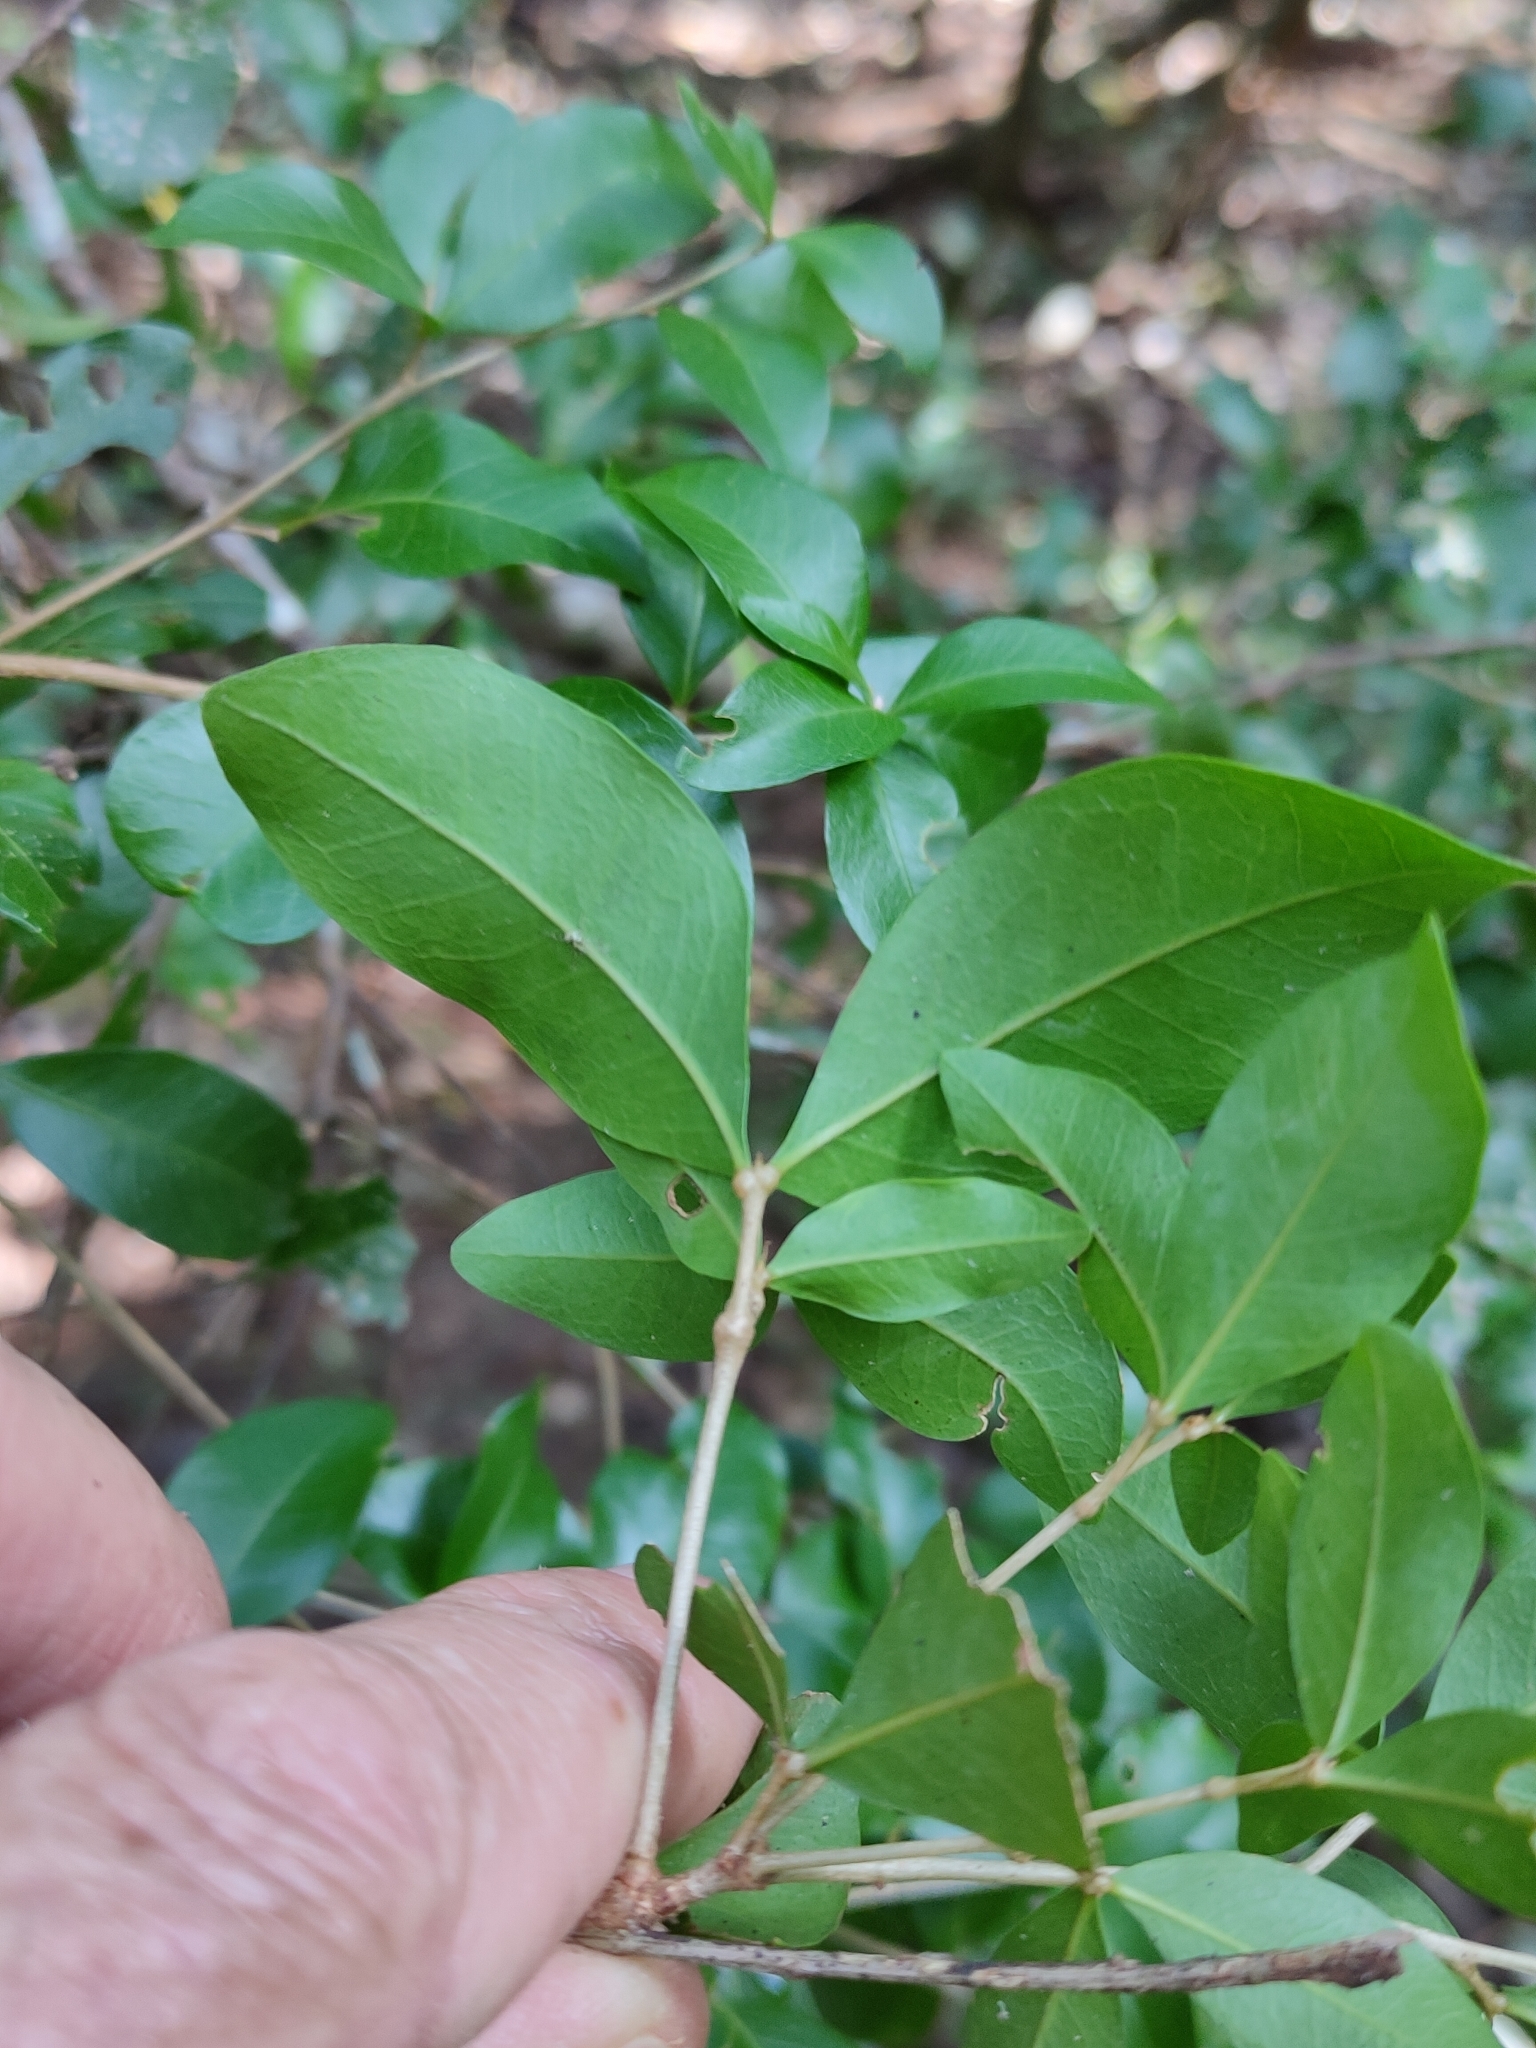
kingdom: Plantae
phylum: Tracheophyta
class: Magnoliopsida
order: Sapindales
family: Sapindaceae
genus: Arytera
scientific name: Arytera microphylla
